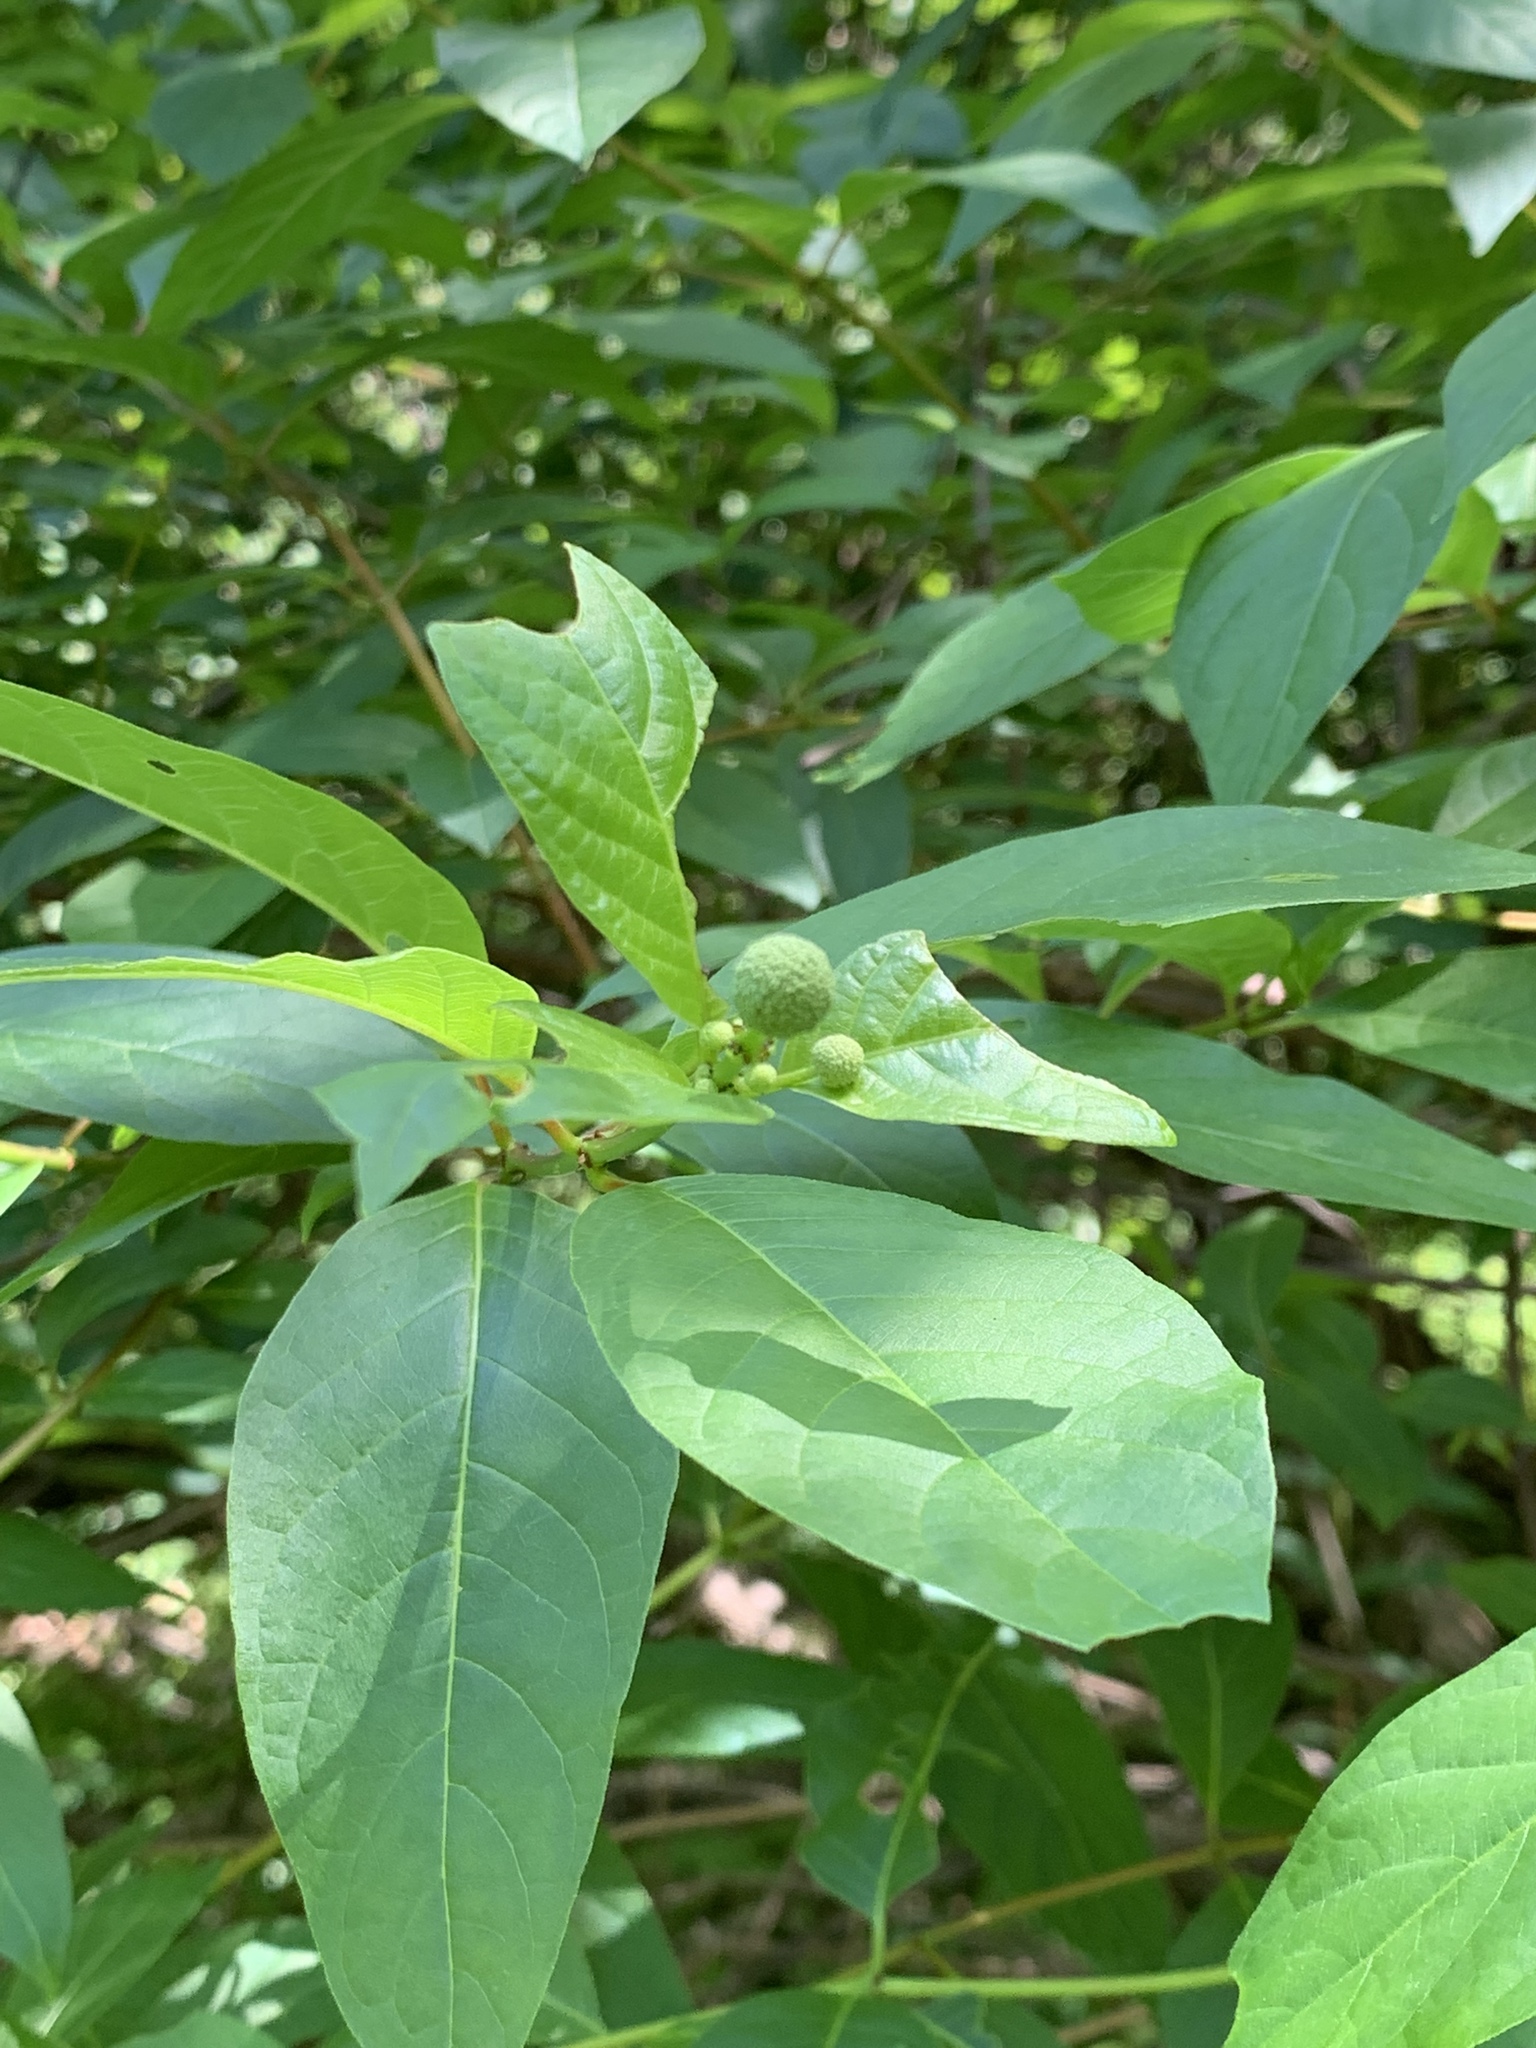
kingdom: Plantae
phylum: Tracheophyta
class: Magnoliopsida
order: Gentianales
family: Rubiaceae
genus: Cephalanthus
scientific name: Cephalanthus occidentalis
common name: Button-willow
